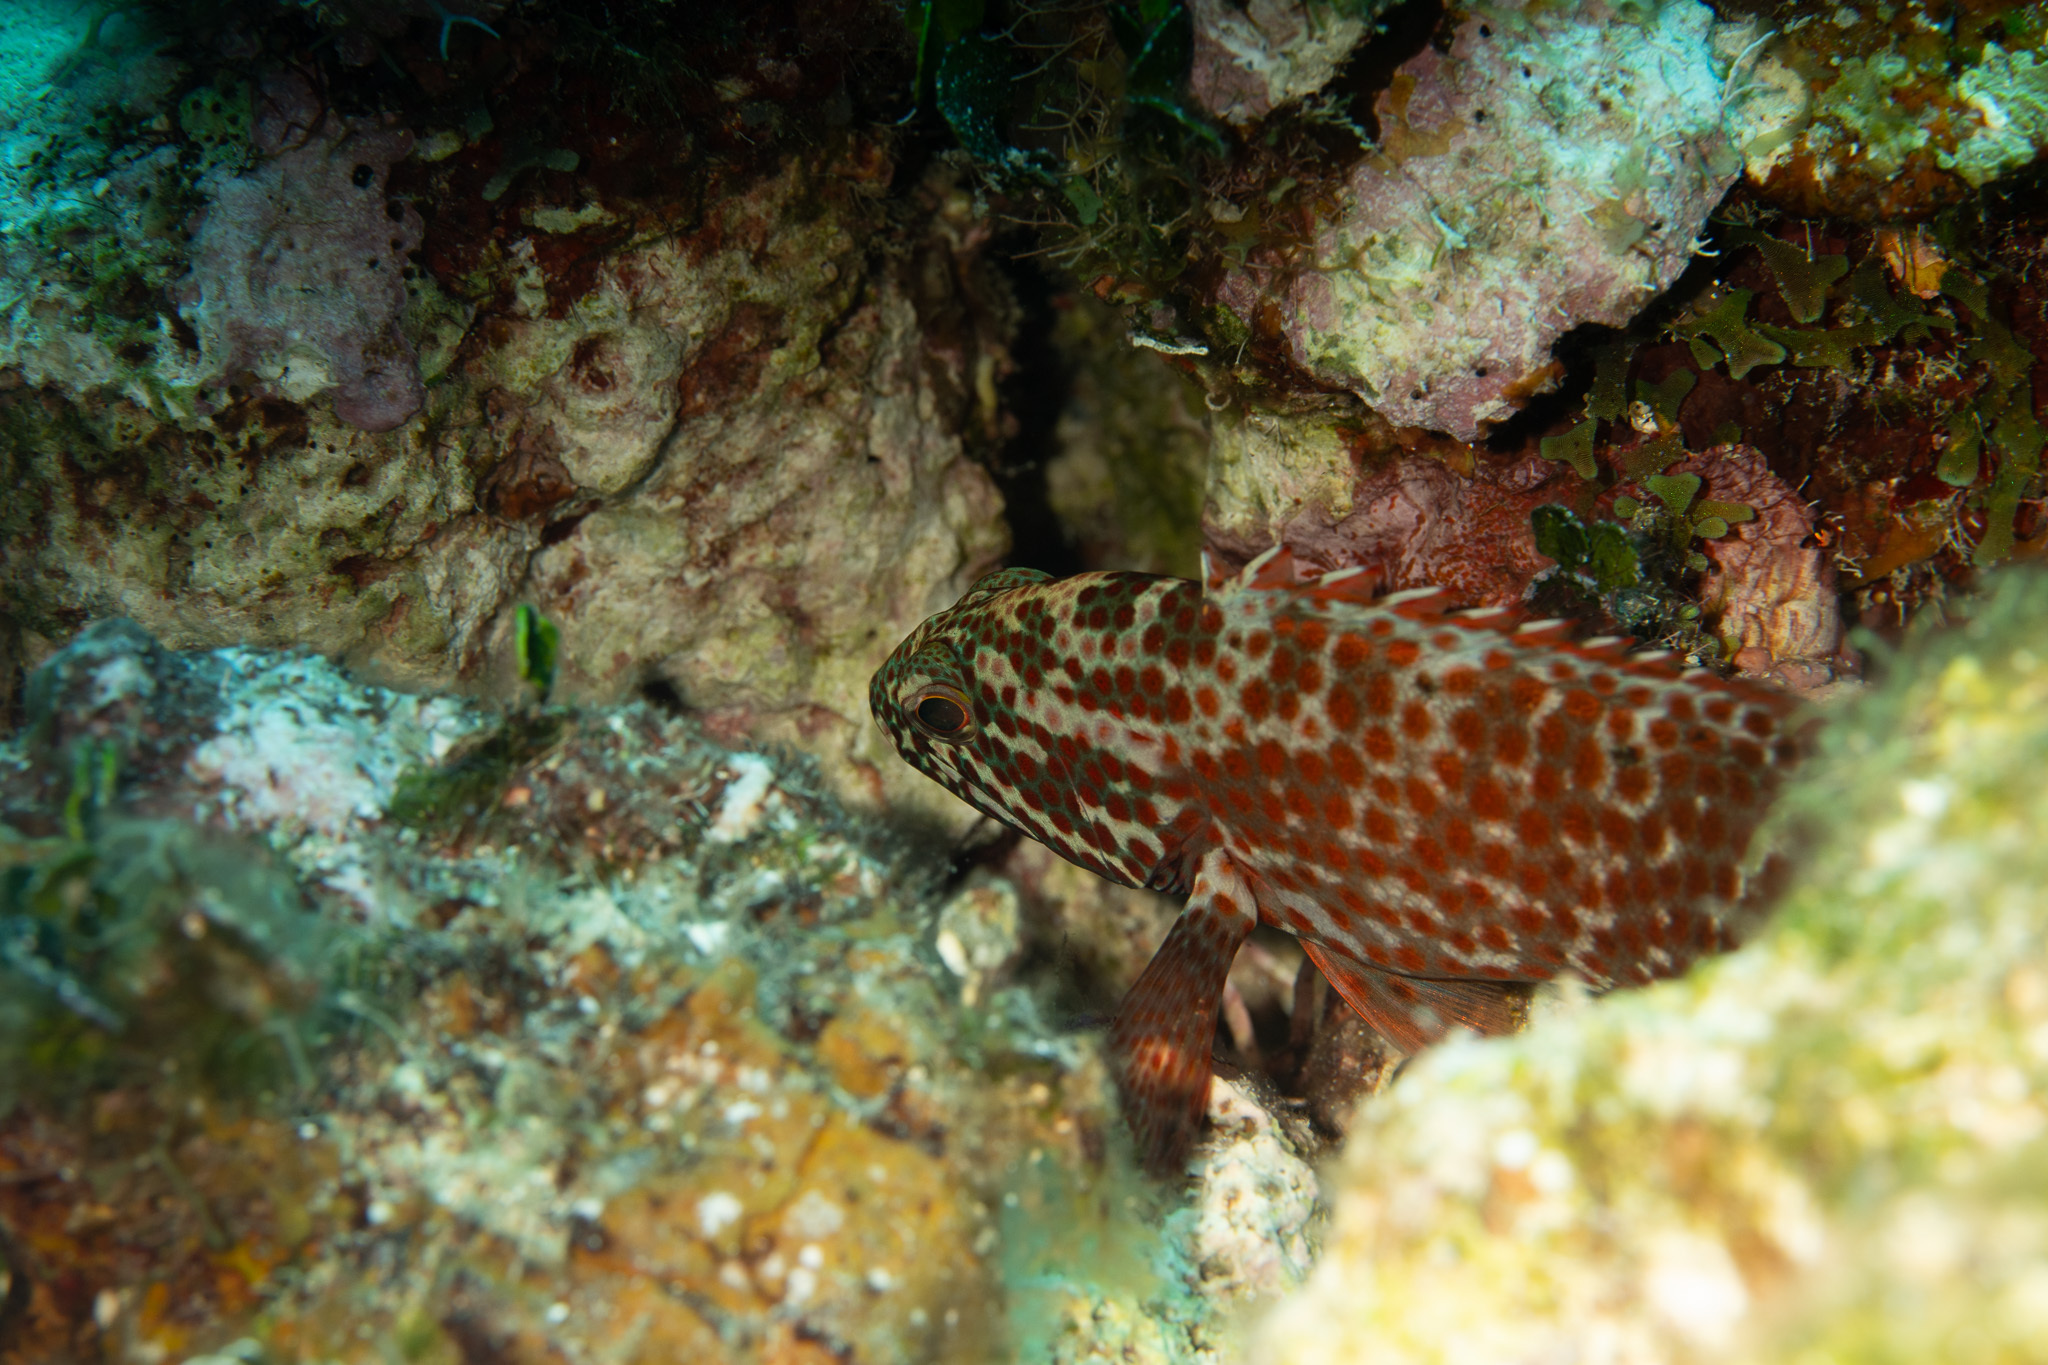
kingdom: Animalia
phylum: Chordata
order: Perciformes
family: Serranidae
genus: Cephalopholis
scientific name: Cephalopholis cruentata
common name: Graysby
